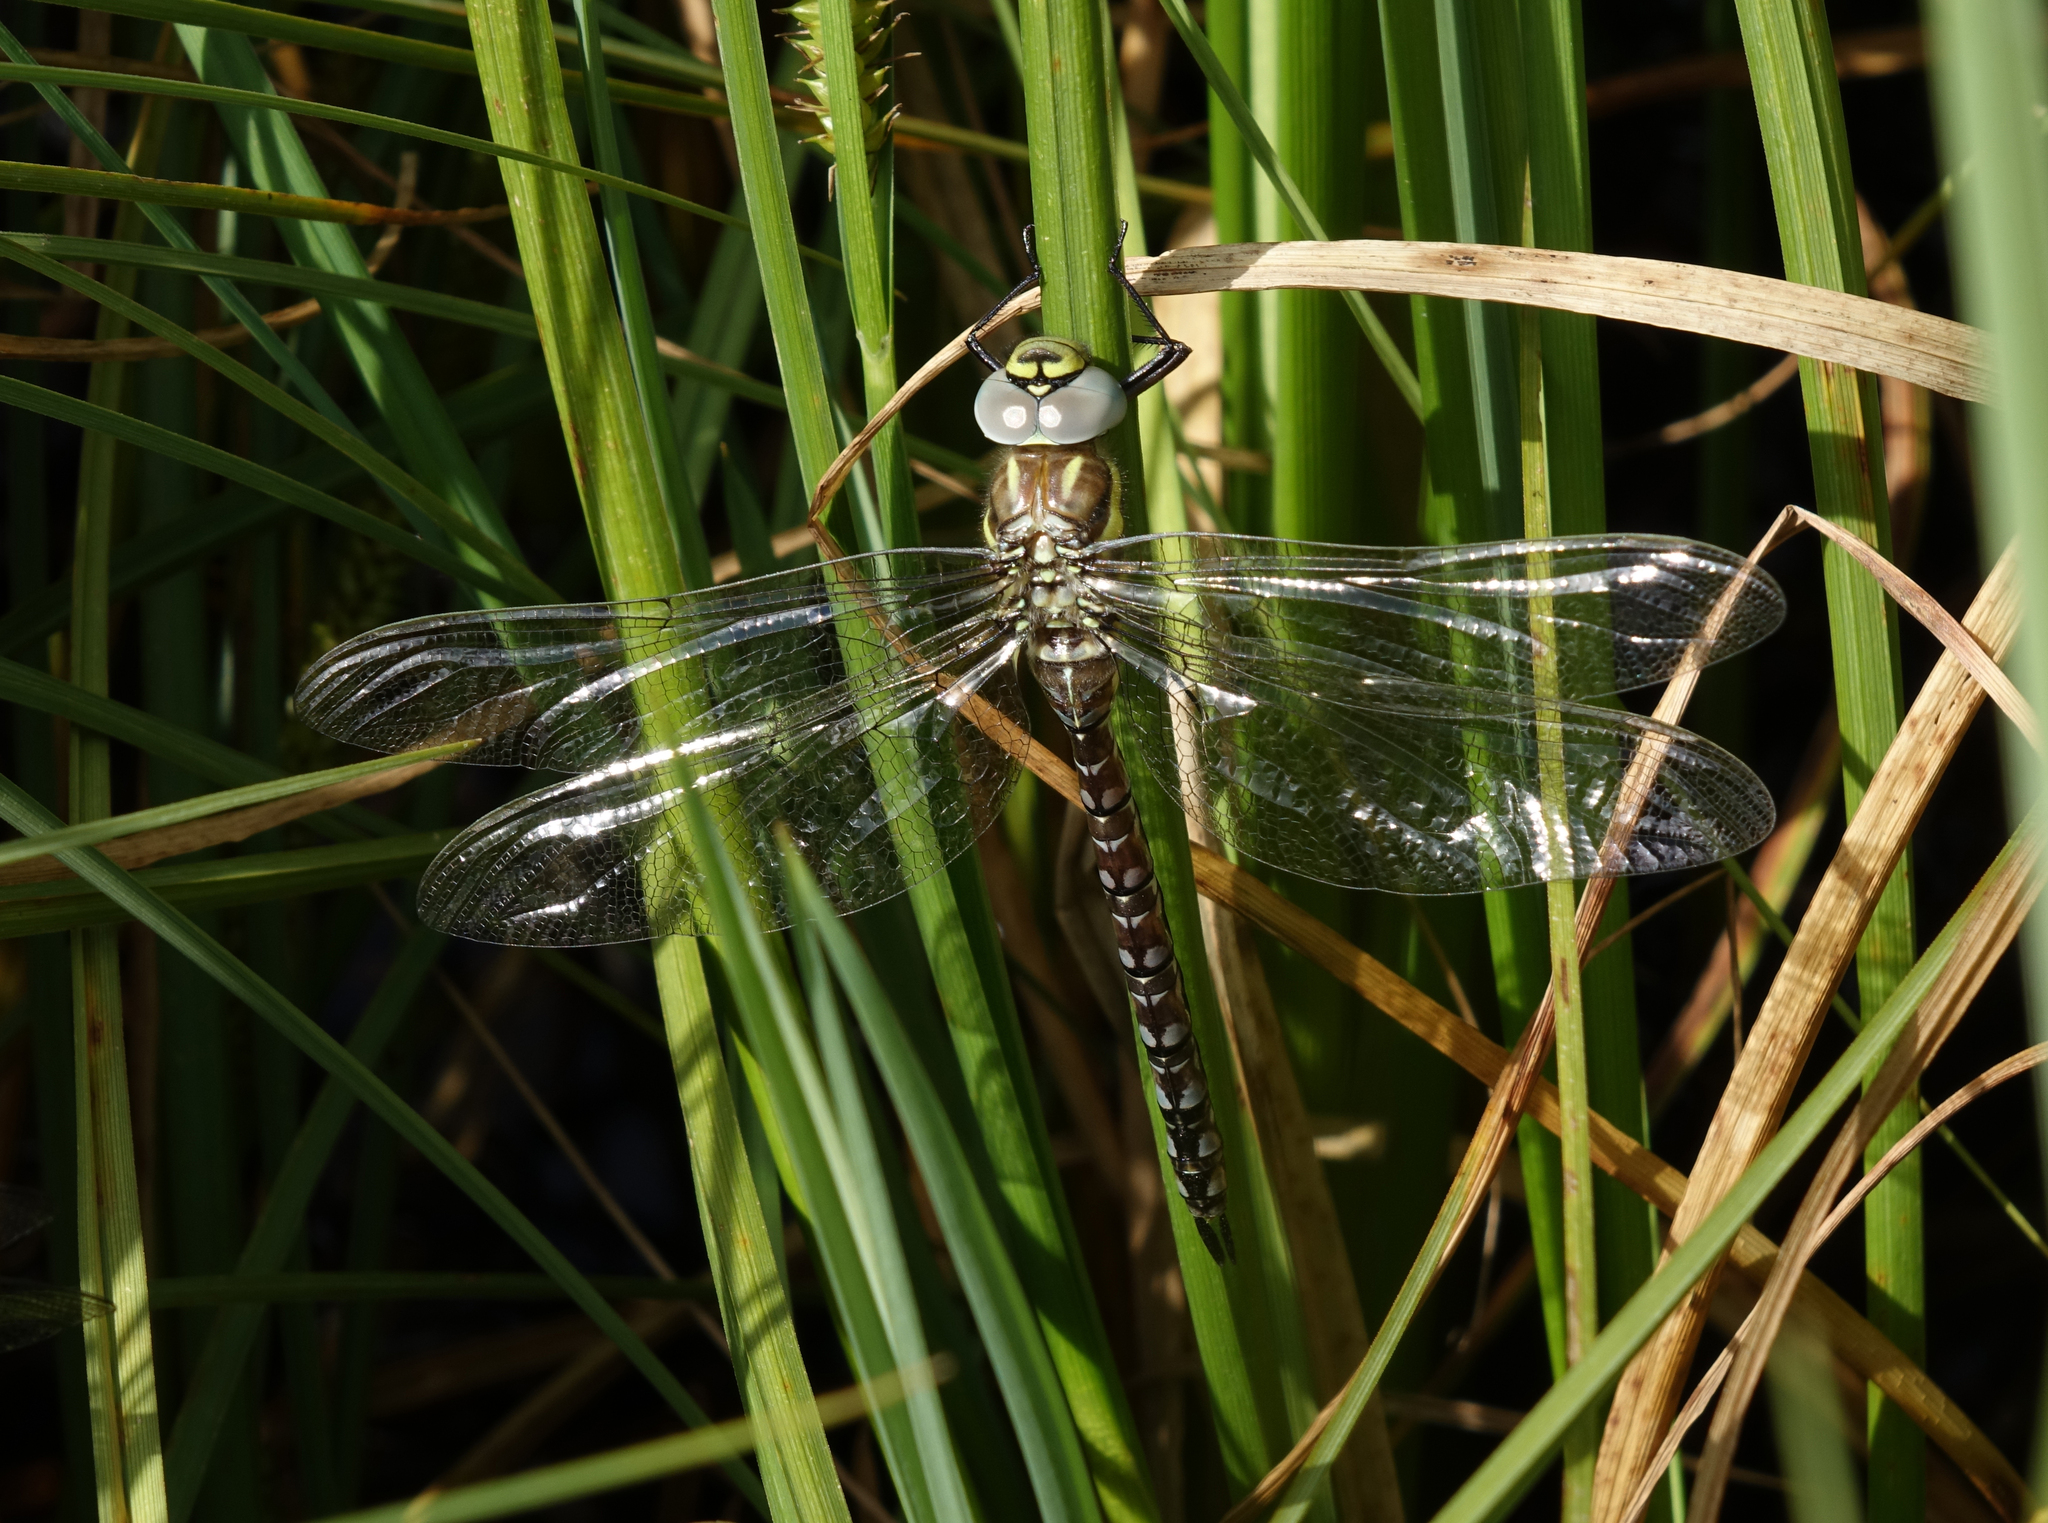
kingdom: Animalia
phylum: Arthropoda
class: Insecta
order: Odonata
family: Aeshnidae
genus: Aeshna
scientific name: Aeshna juncea
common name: Moorland hawker
